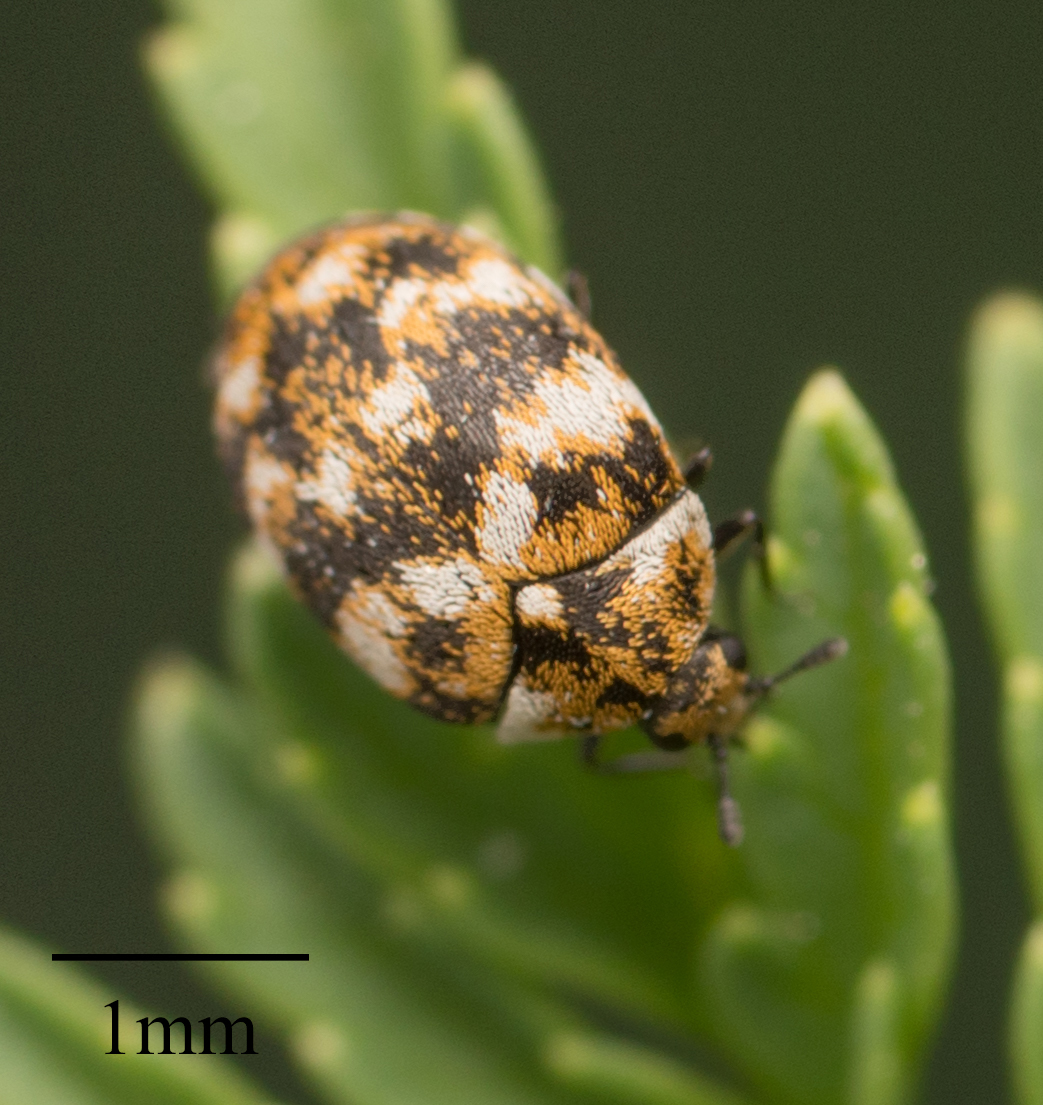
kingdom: Animalia
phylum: Arthropoda
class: Insecta
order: Coleoptera
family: Dermestidae
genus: Anthrenus
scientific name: Anthrenus verbasci
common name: Varied carpet beetle
